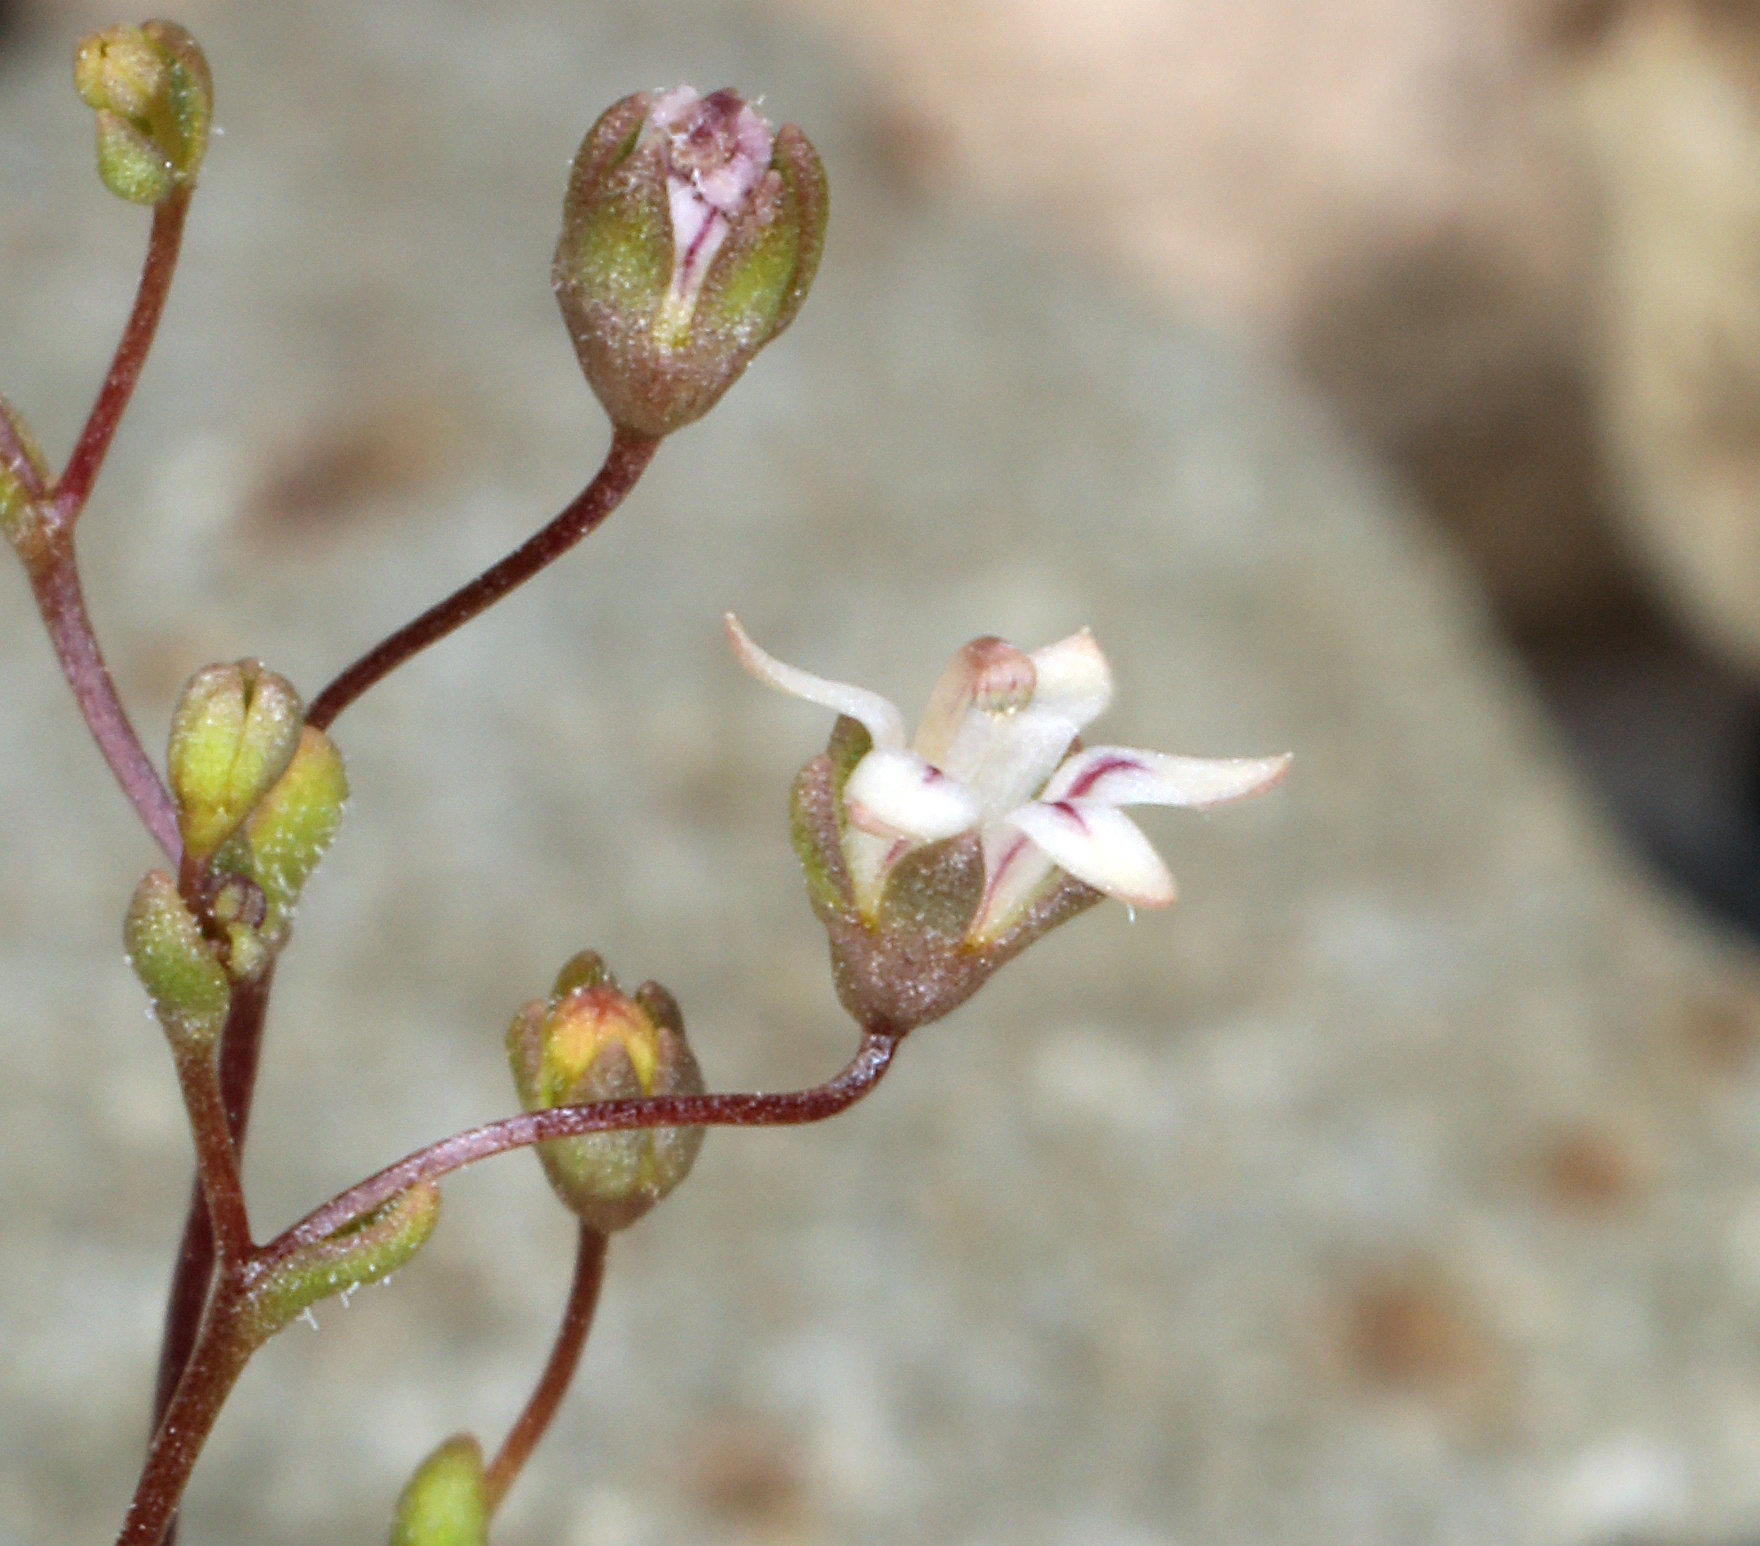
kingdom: Plantae
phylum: Tracheophyta
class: Magnoliopsida
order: Asterales
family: Campanulaceae
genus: Nemacladus
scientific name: Nemacladus inyoensis
